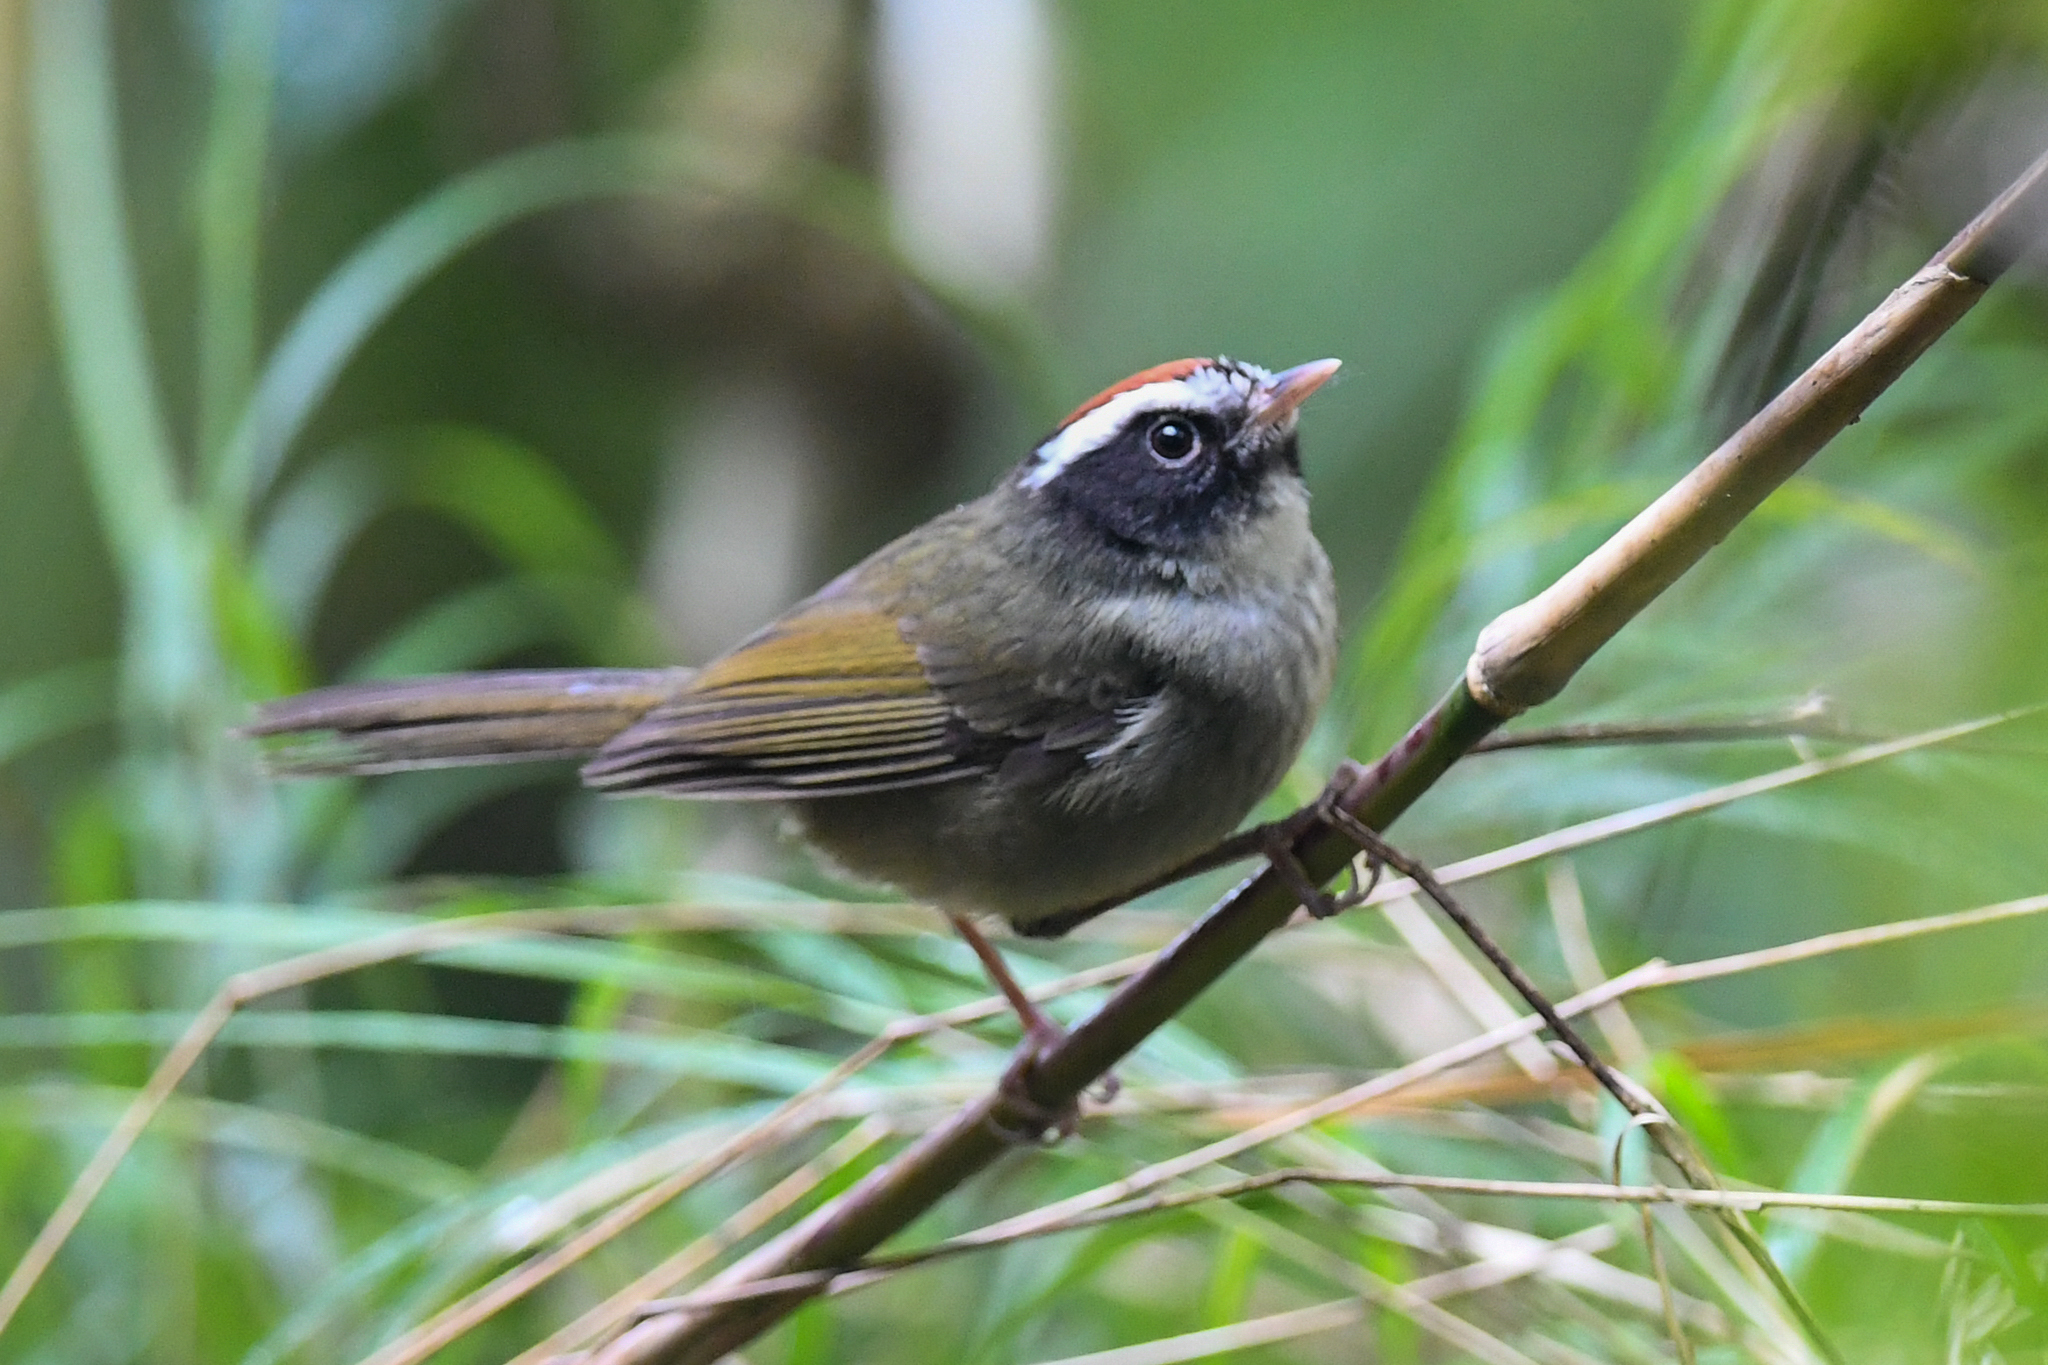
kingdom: Animalia
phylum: Chordata
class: Aves
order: Passeriformes
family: Parulidae
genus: Basileuterus
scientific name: Basileuterus melanogenys
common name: Black-cheeked warbler
